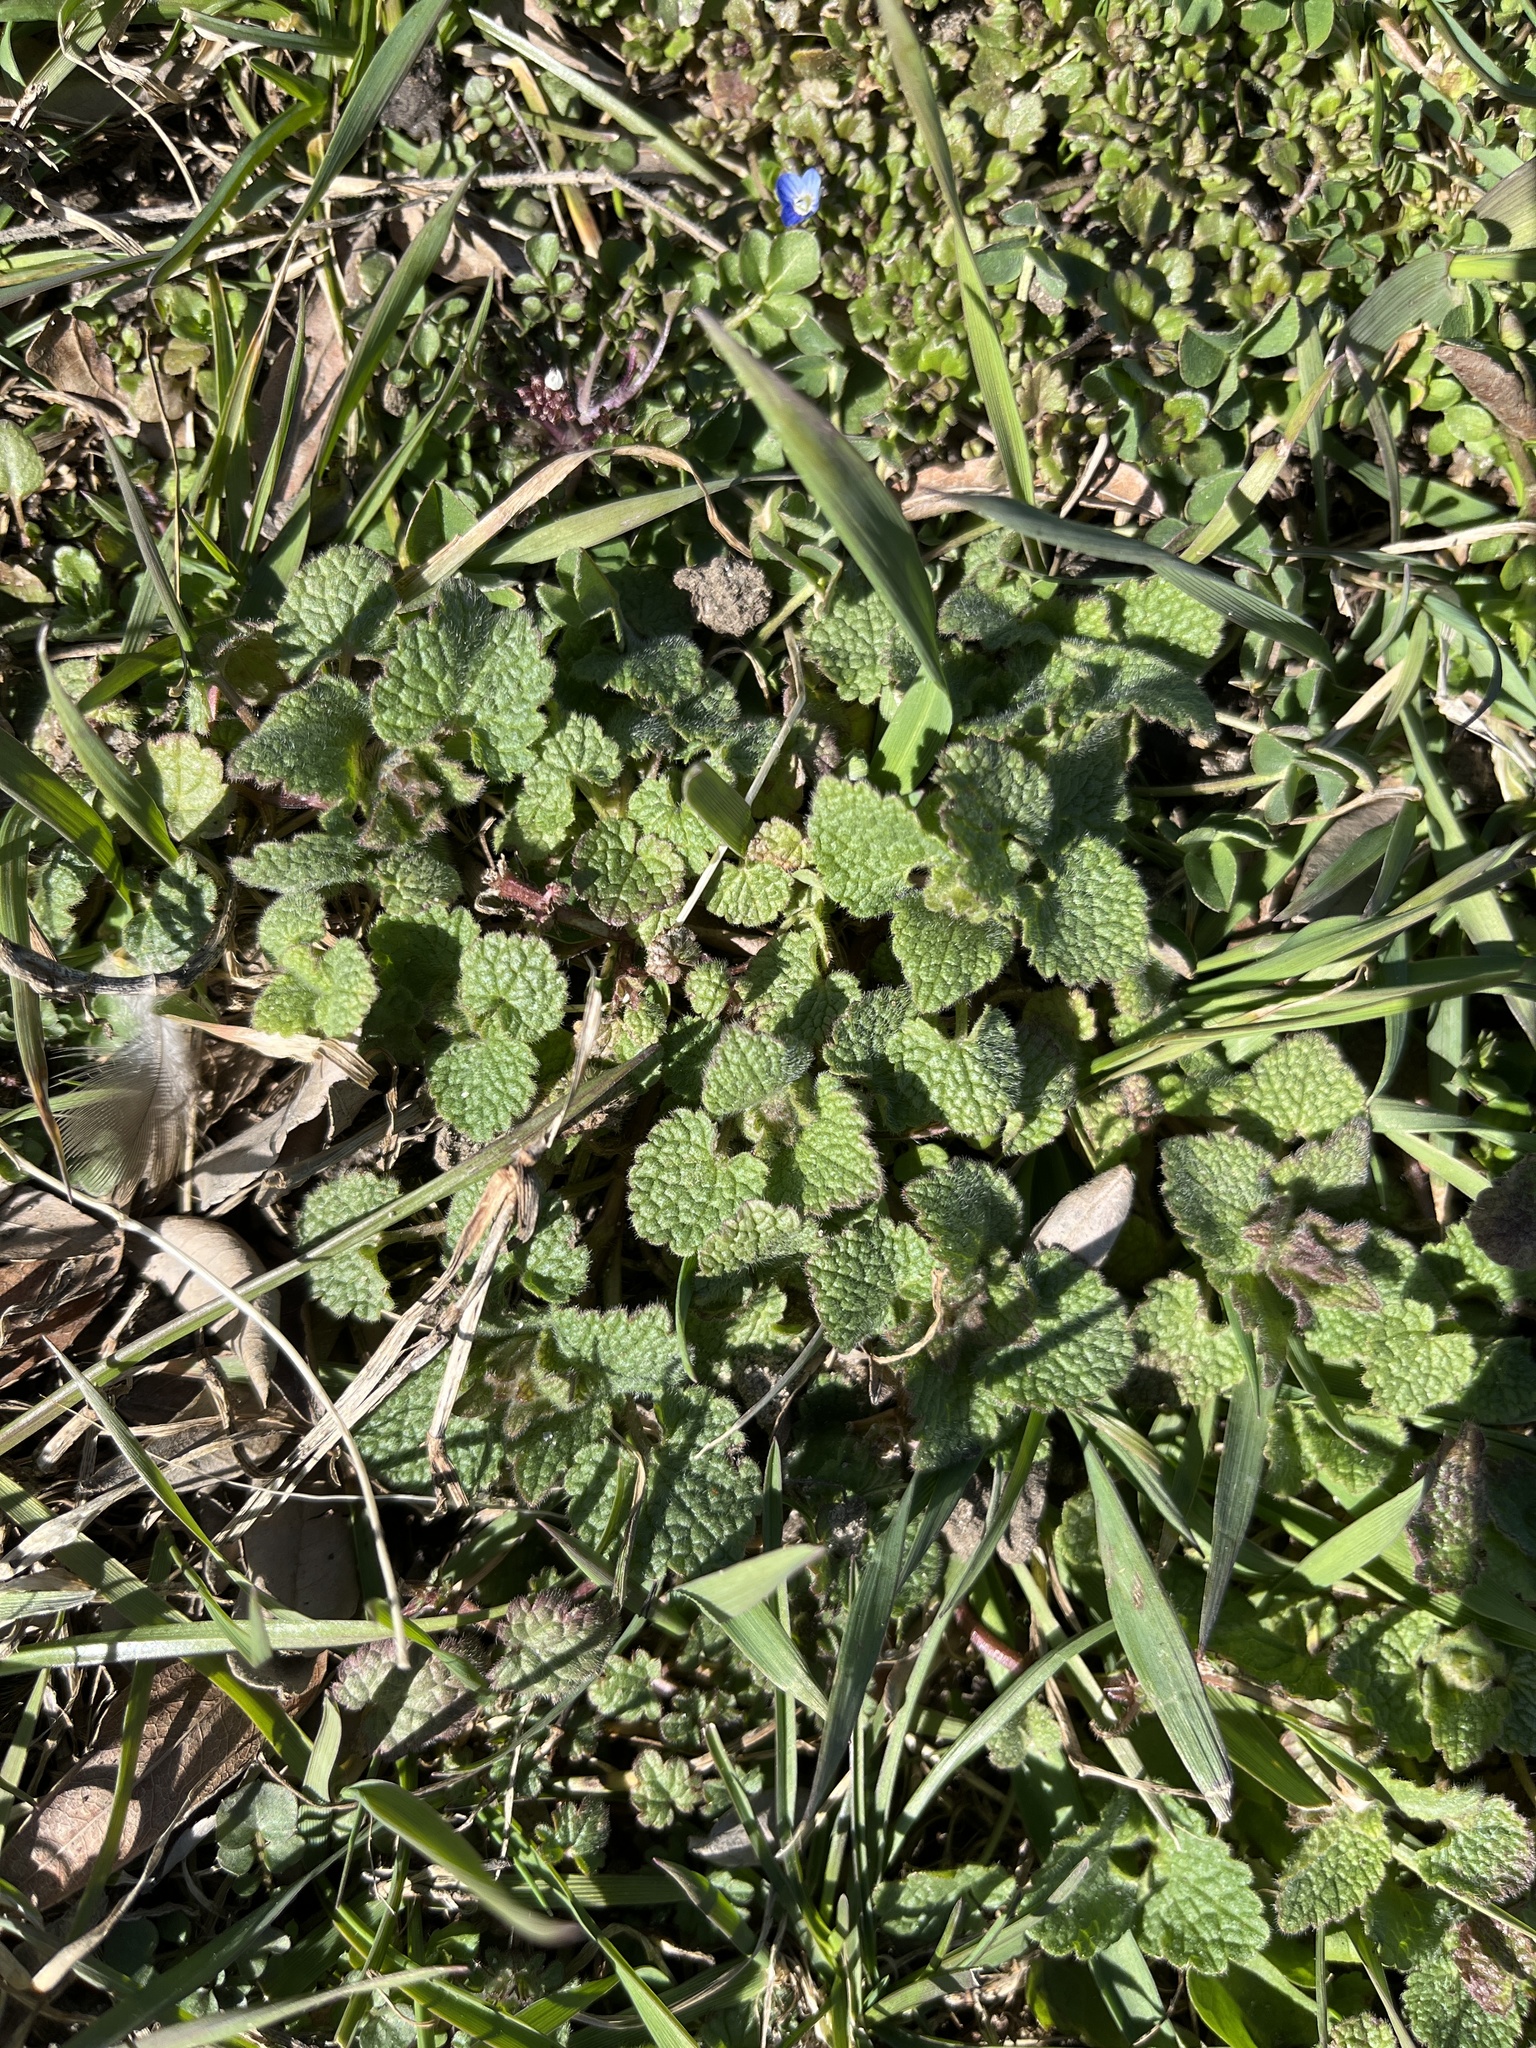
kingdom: Plantae
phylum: Tracheophyta
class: Magnoliopsida
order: Lamiales
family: Lamiaceae
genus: Lamium
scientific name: Lamium purpureum
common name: Red dead-nettle
